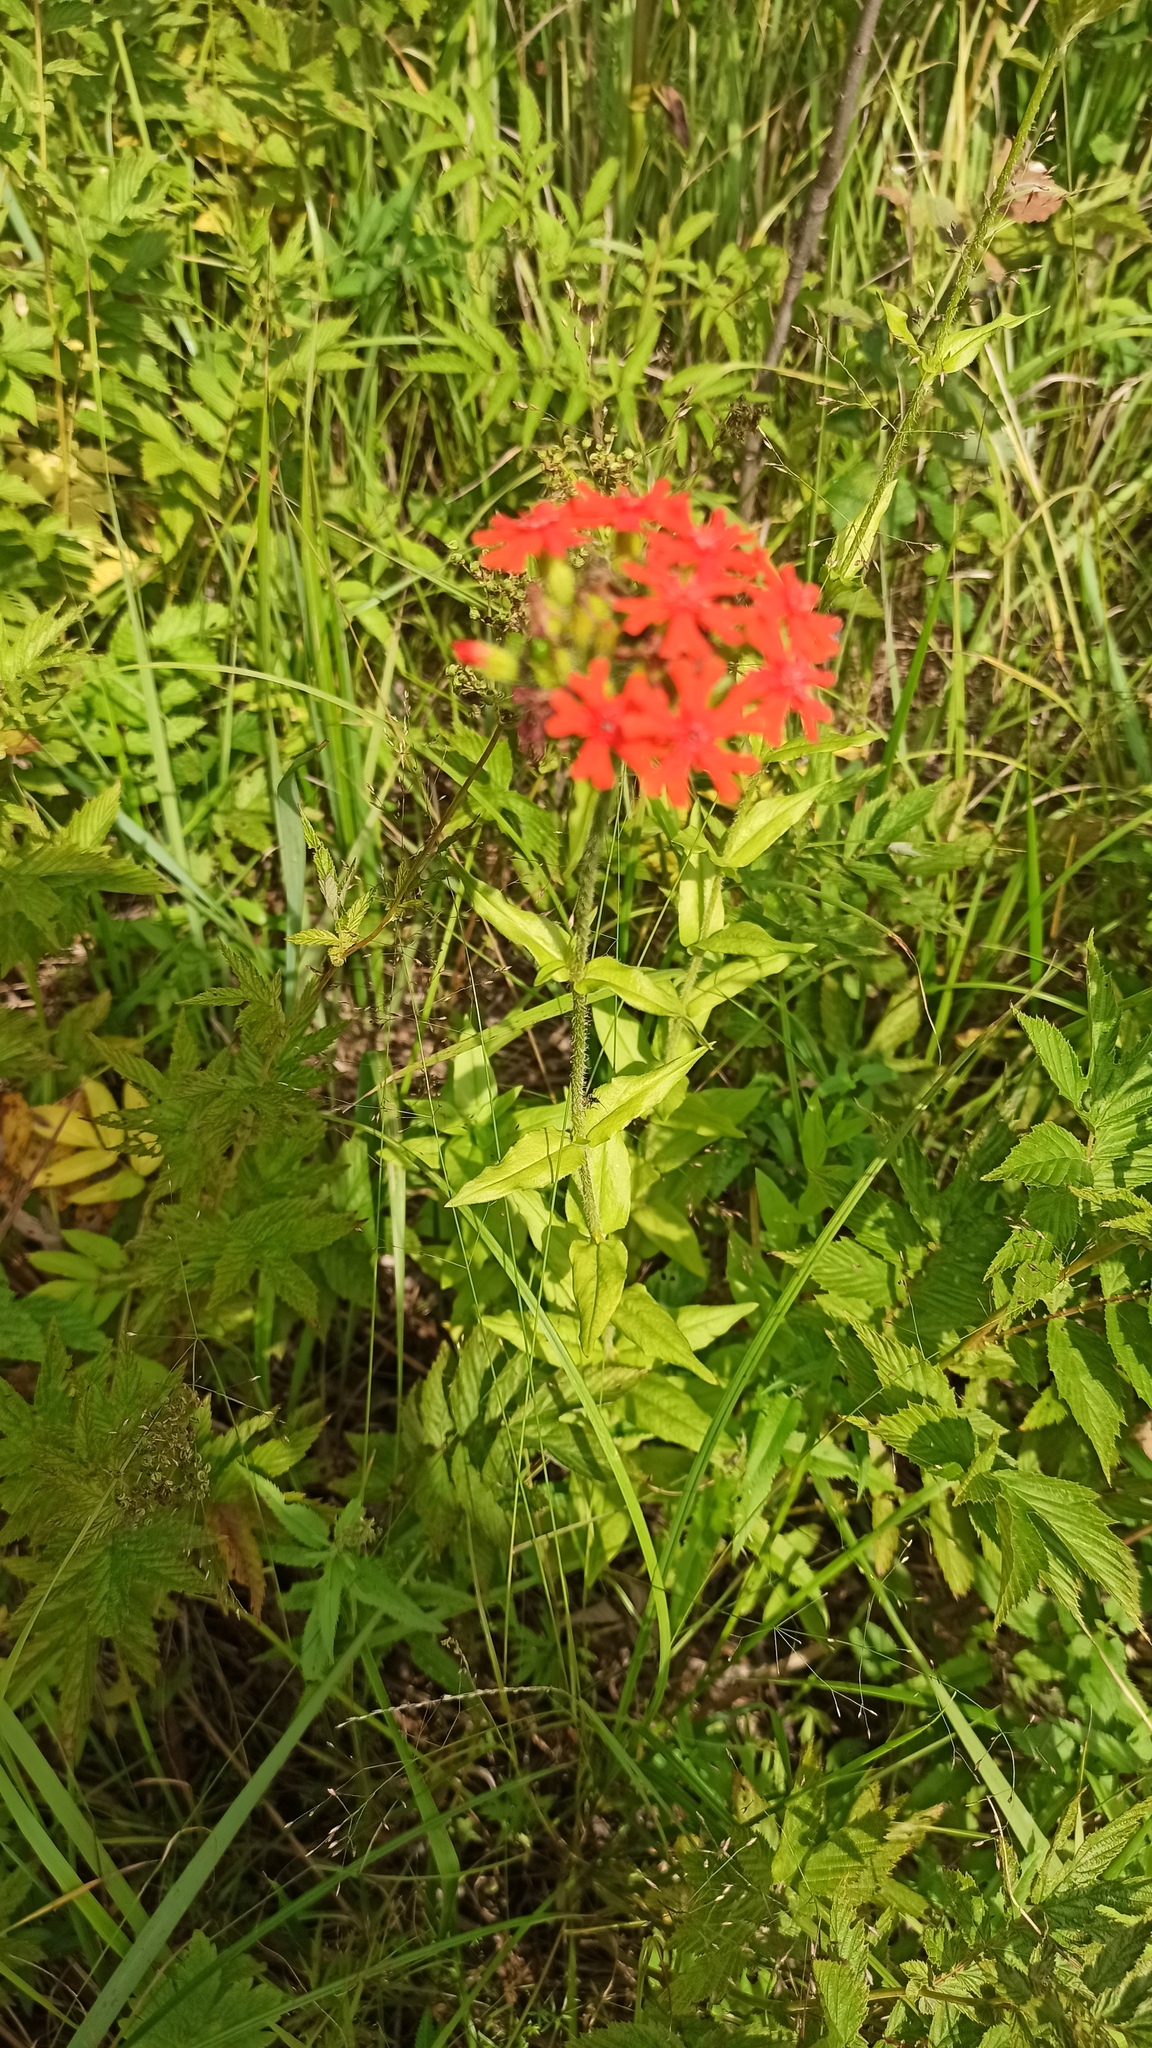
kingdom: Plantae
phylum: Tracheophyta
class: Magnoliopsida
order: Caryophyllales
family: Caryophyllaceae
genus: Silene
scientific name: Silene chalcedonica
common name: Maltese-cross
